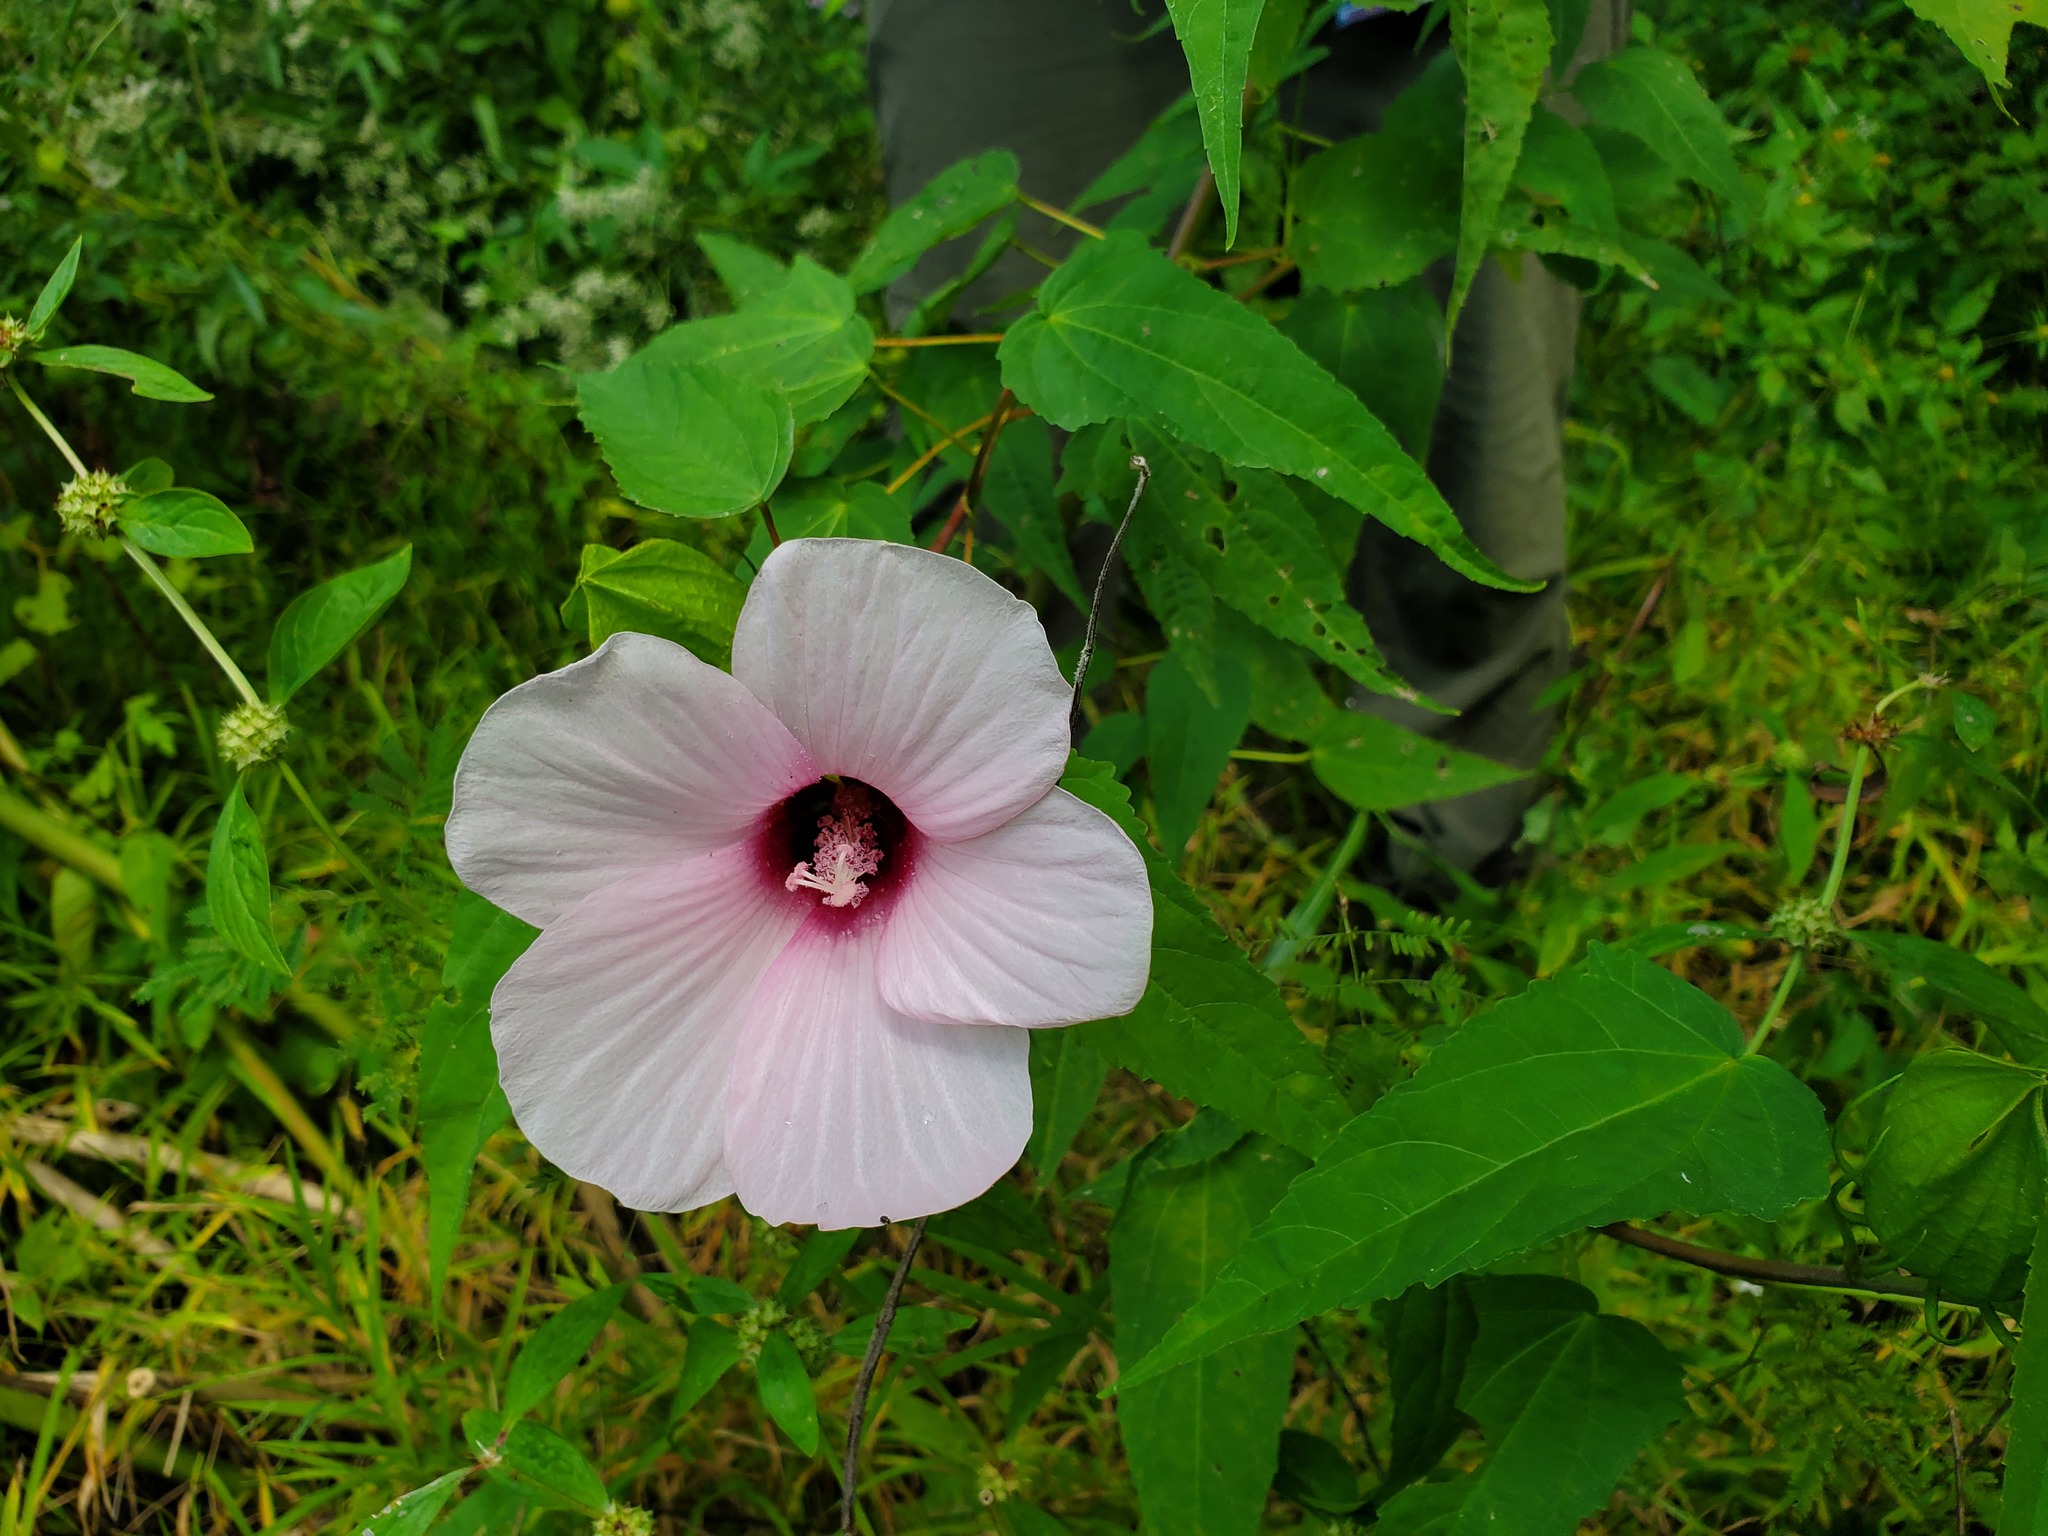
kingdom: Plantae
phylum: Tracheophyta
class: Magnoliopsida
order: Malvales
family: Malvaceae
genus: Hibiscus
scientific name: Hibiscus laevis
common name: Scarlet rose-mallow
